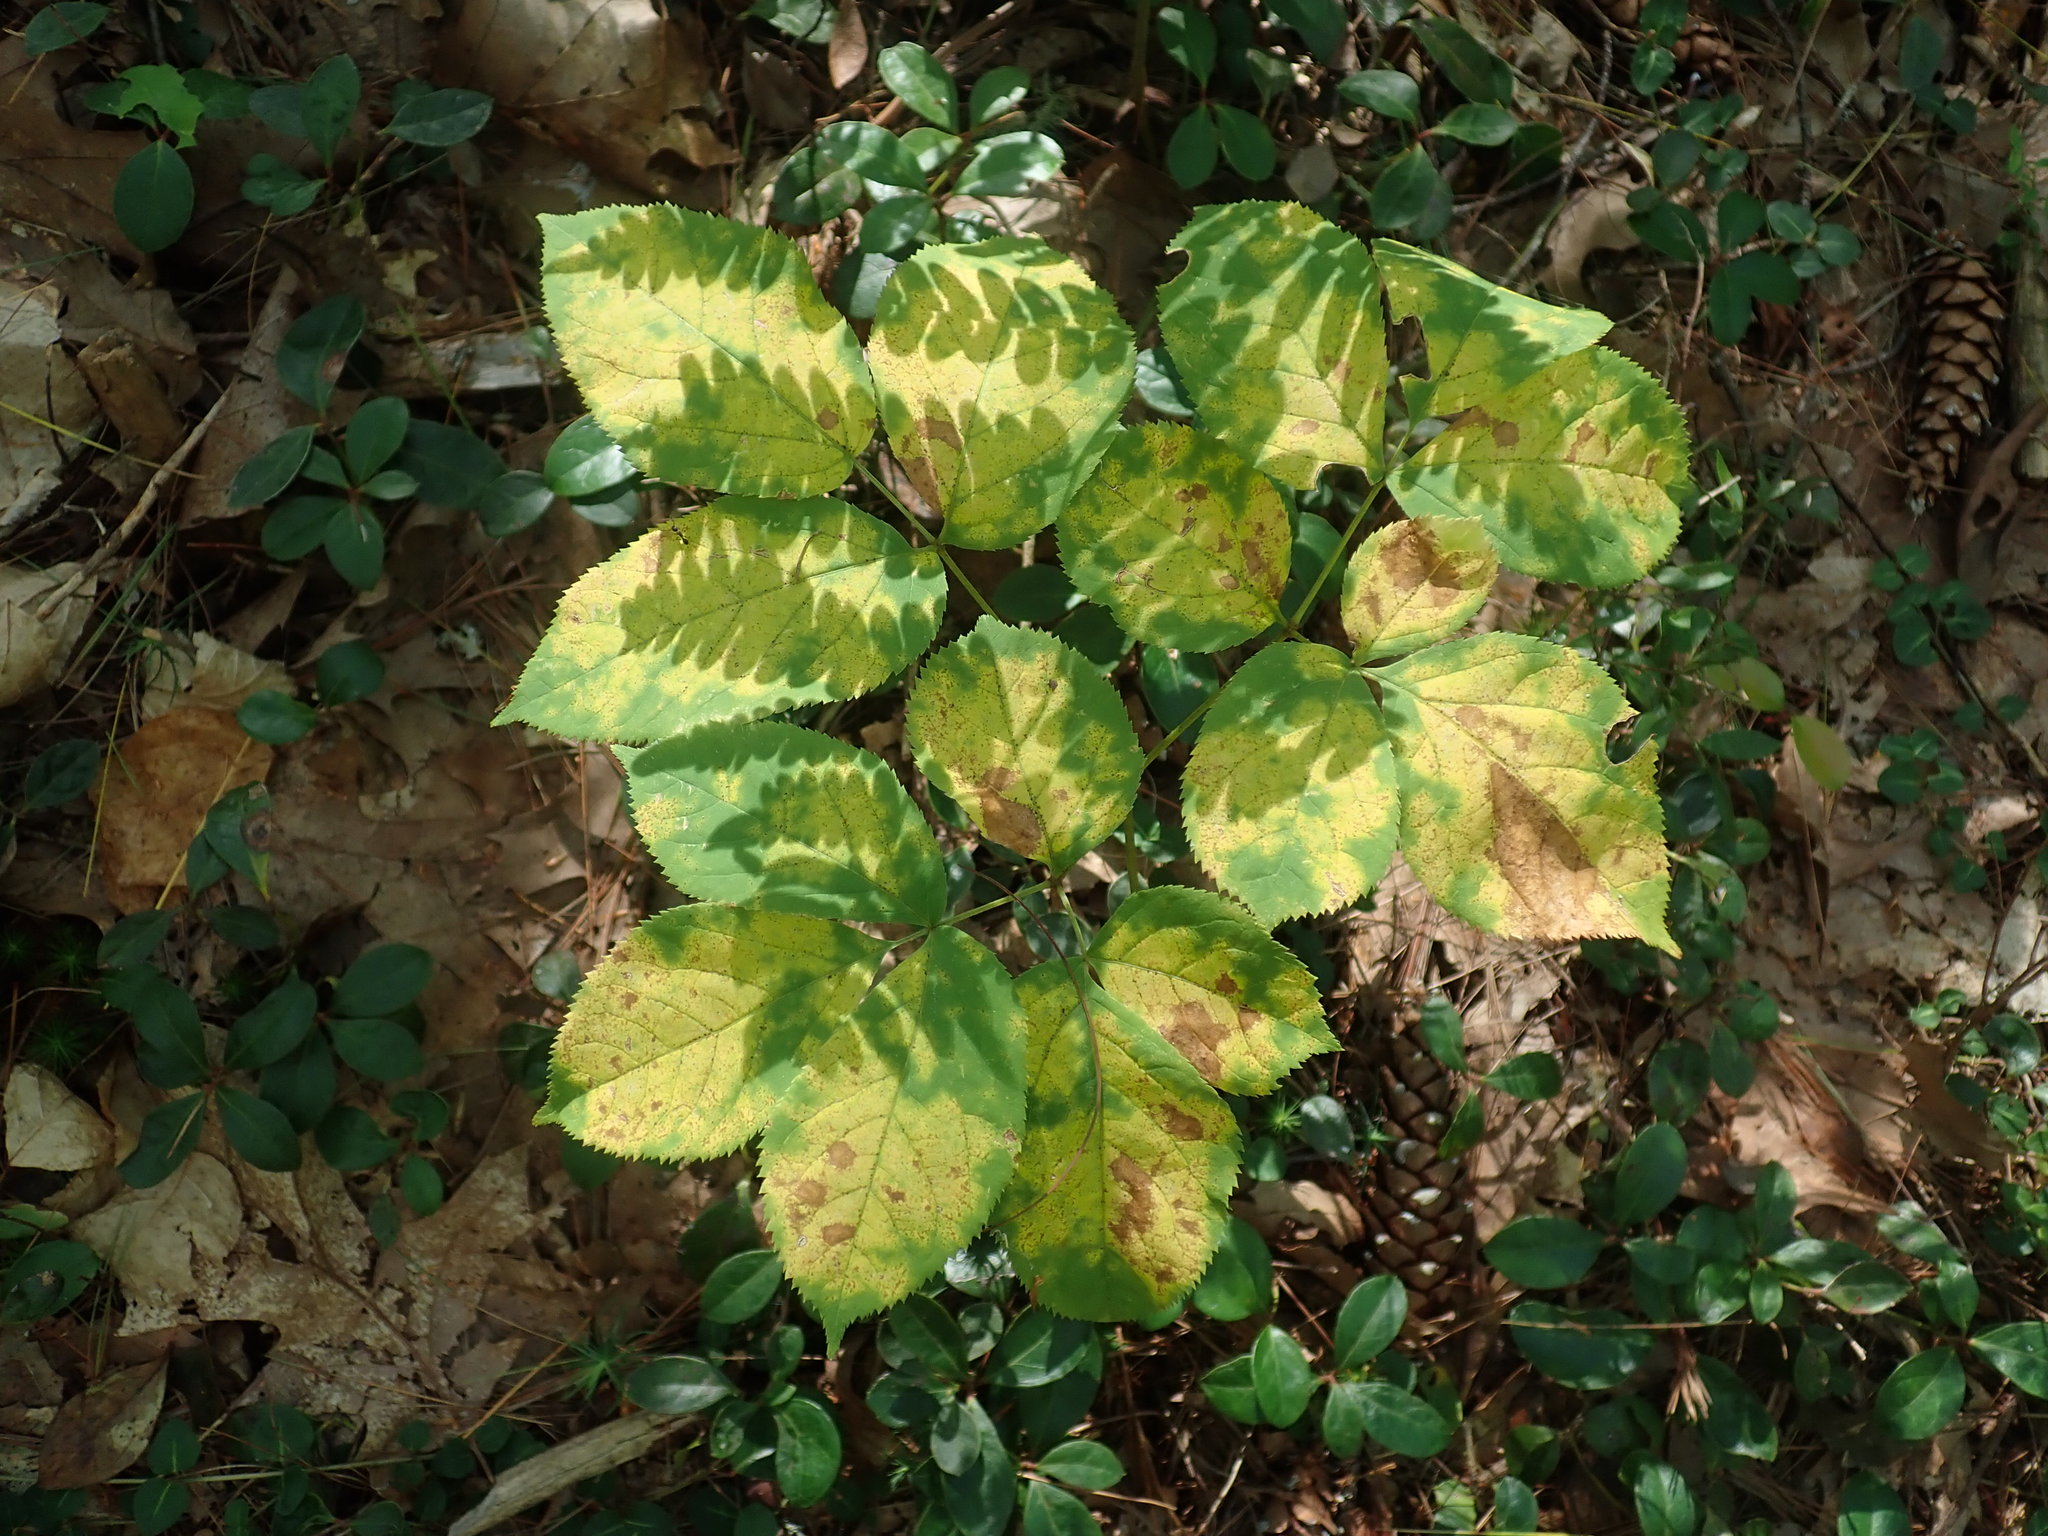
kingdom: Plantae
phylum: Tracheophyta
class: Magnoliopsida
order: Apiales
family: Araliaceae
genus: Aralia
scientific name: Aralia nudicaulis
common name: Wild sarsaparilla
